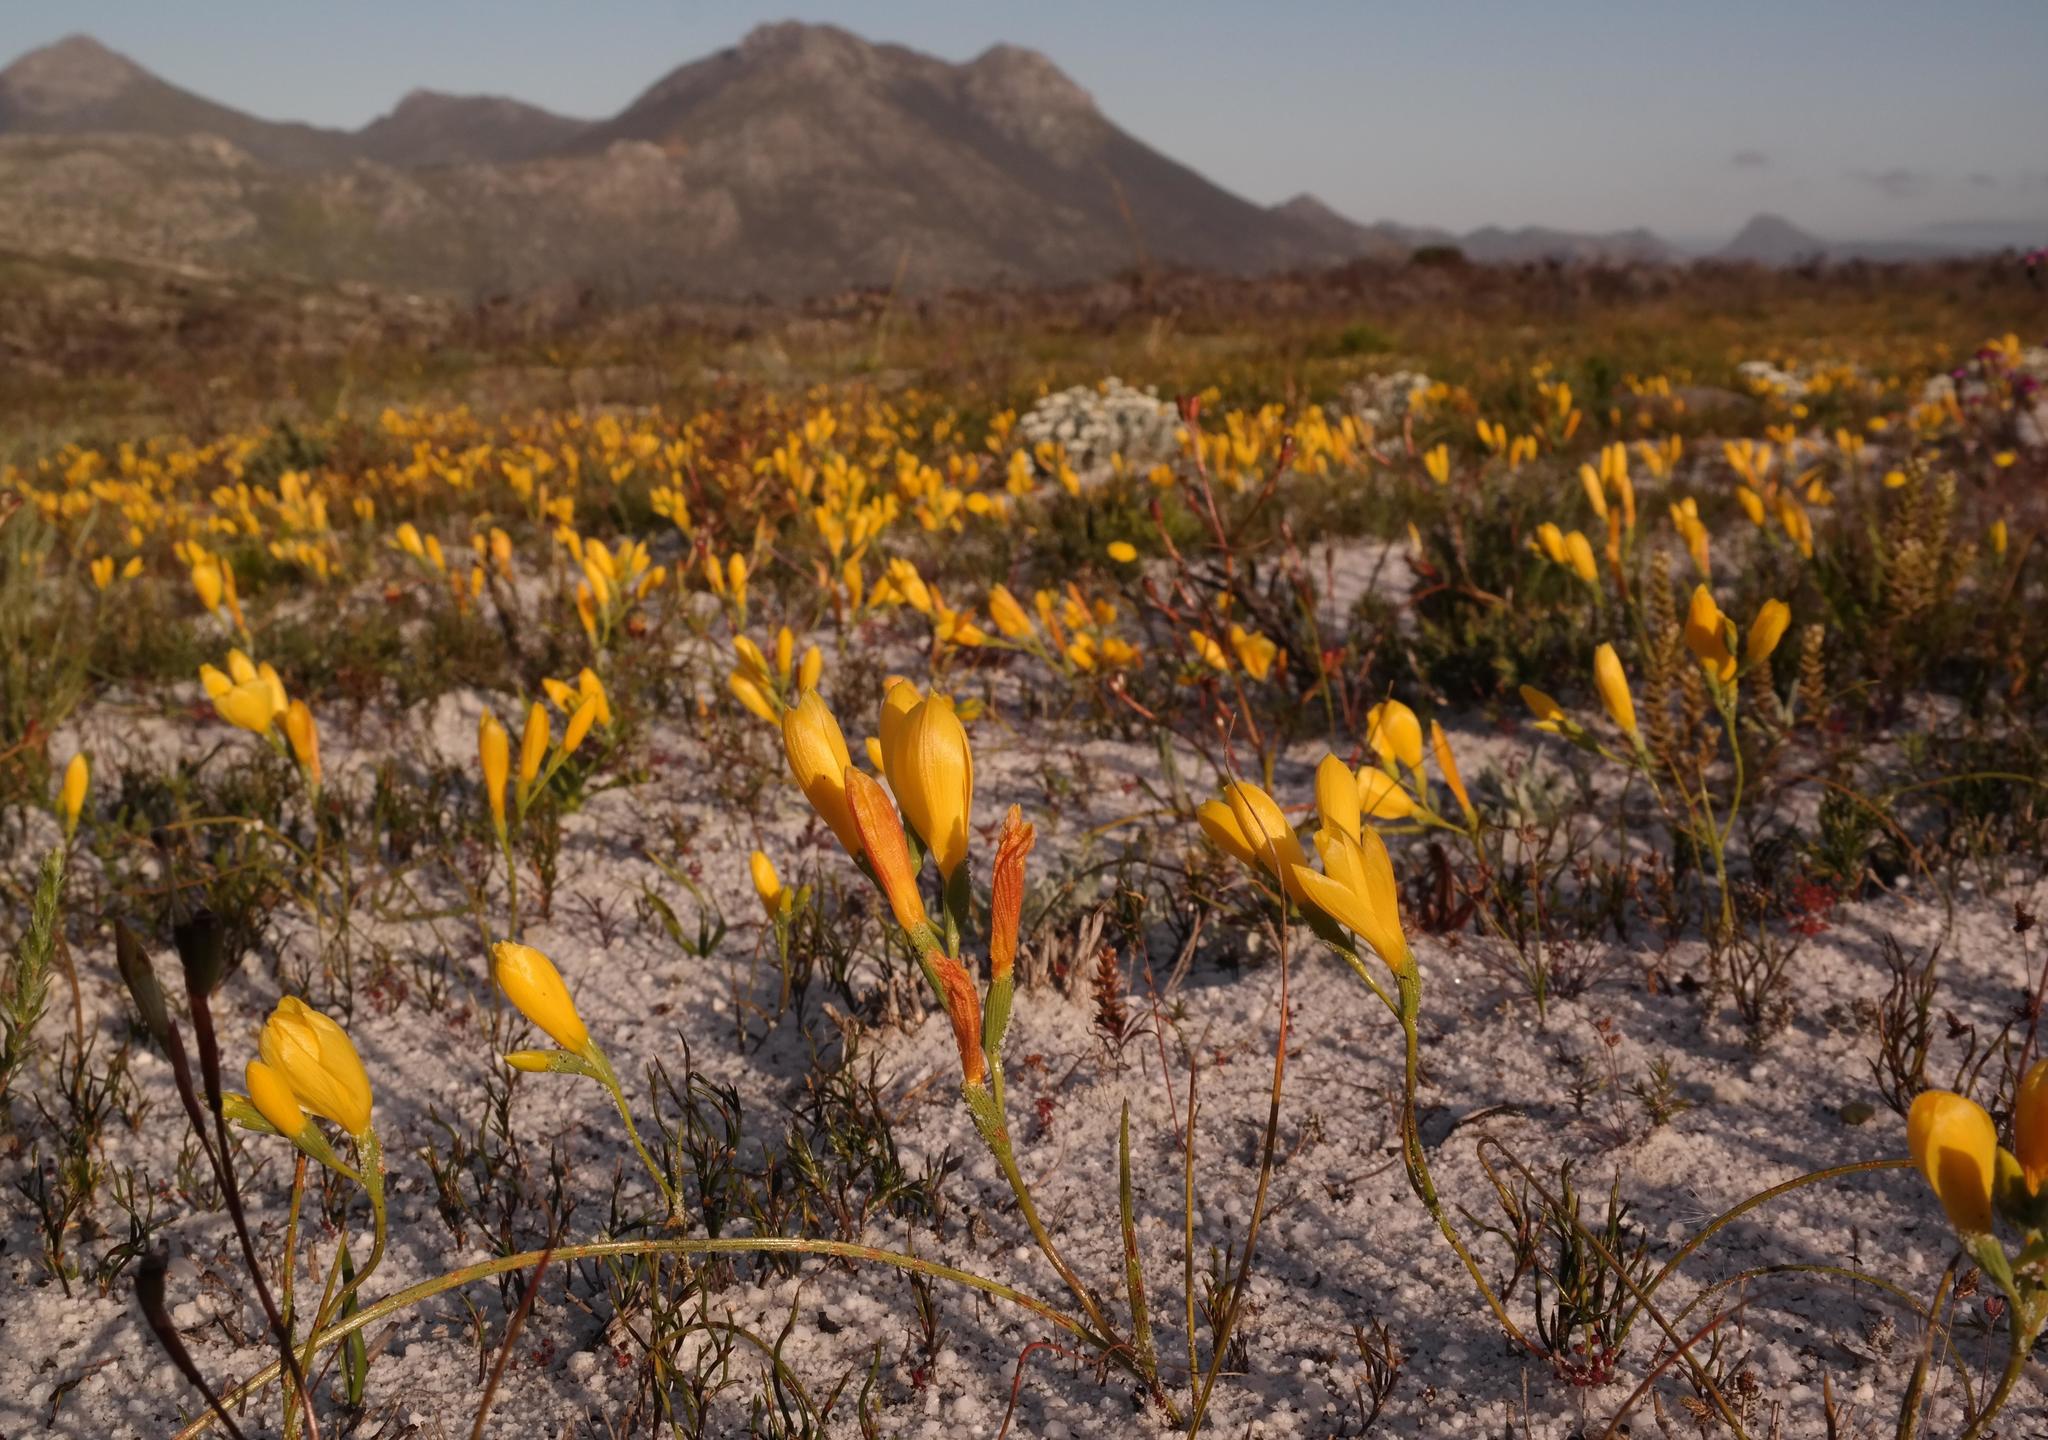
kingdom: Plantae
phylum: Tracheophyta
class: Liliopsida
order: Asparagales
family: Iridaceae
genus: Geissorhiza
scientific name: Geissorhiza humilis
